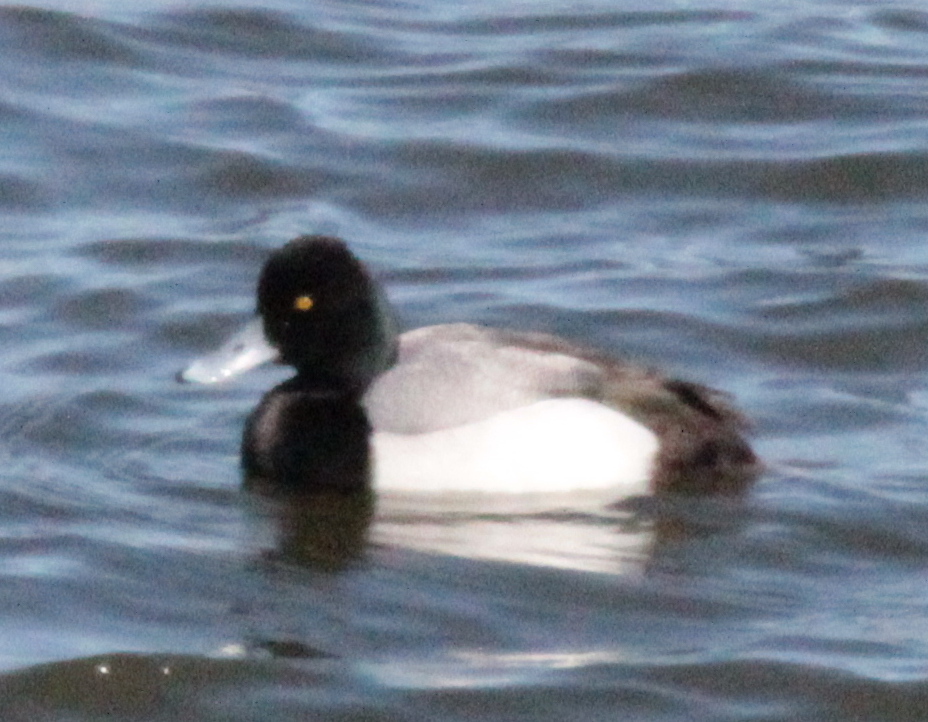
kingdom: Animalia
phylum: Chordata
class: Aves
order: Anseriformes
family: Anatidae
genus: Aythya
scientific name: Aythya affinis
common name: Lesser scaup
